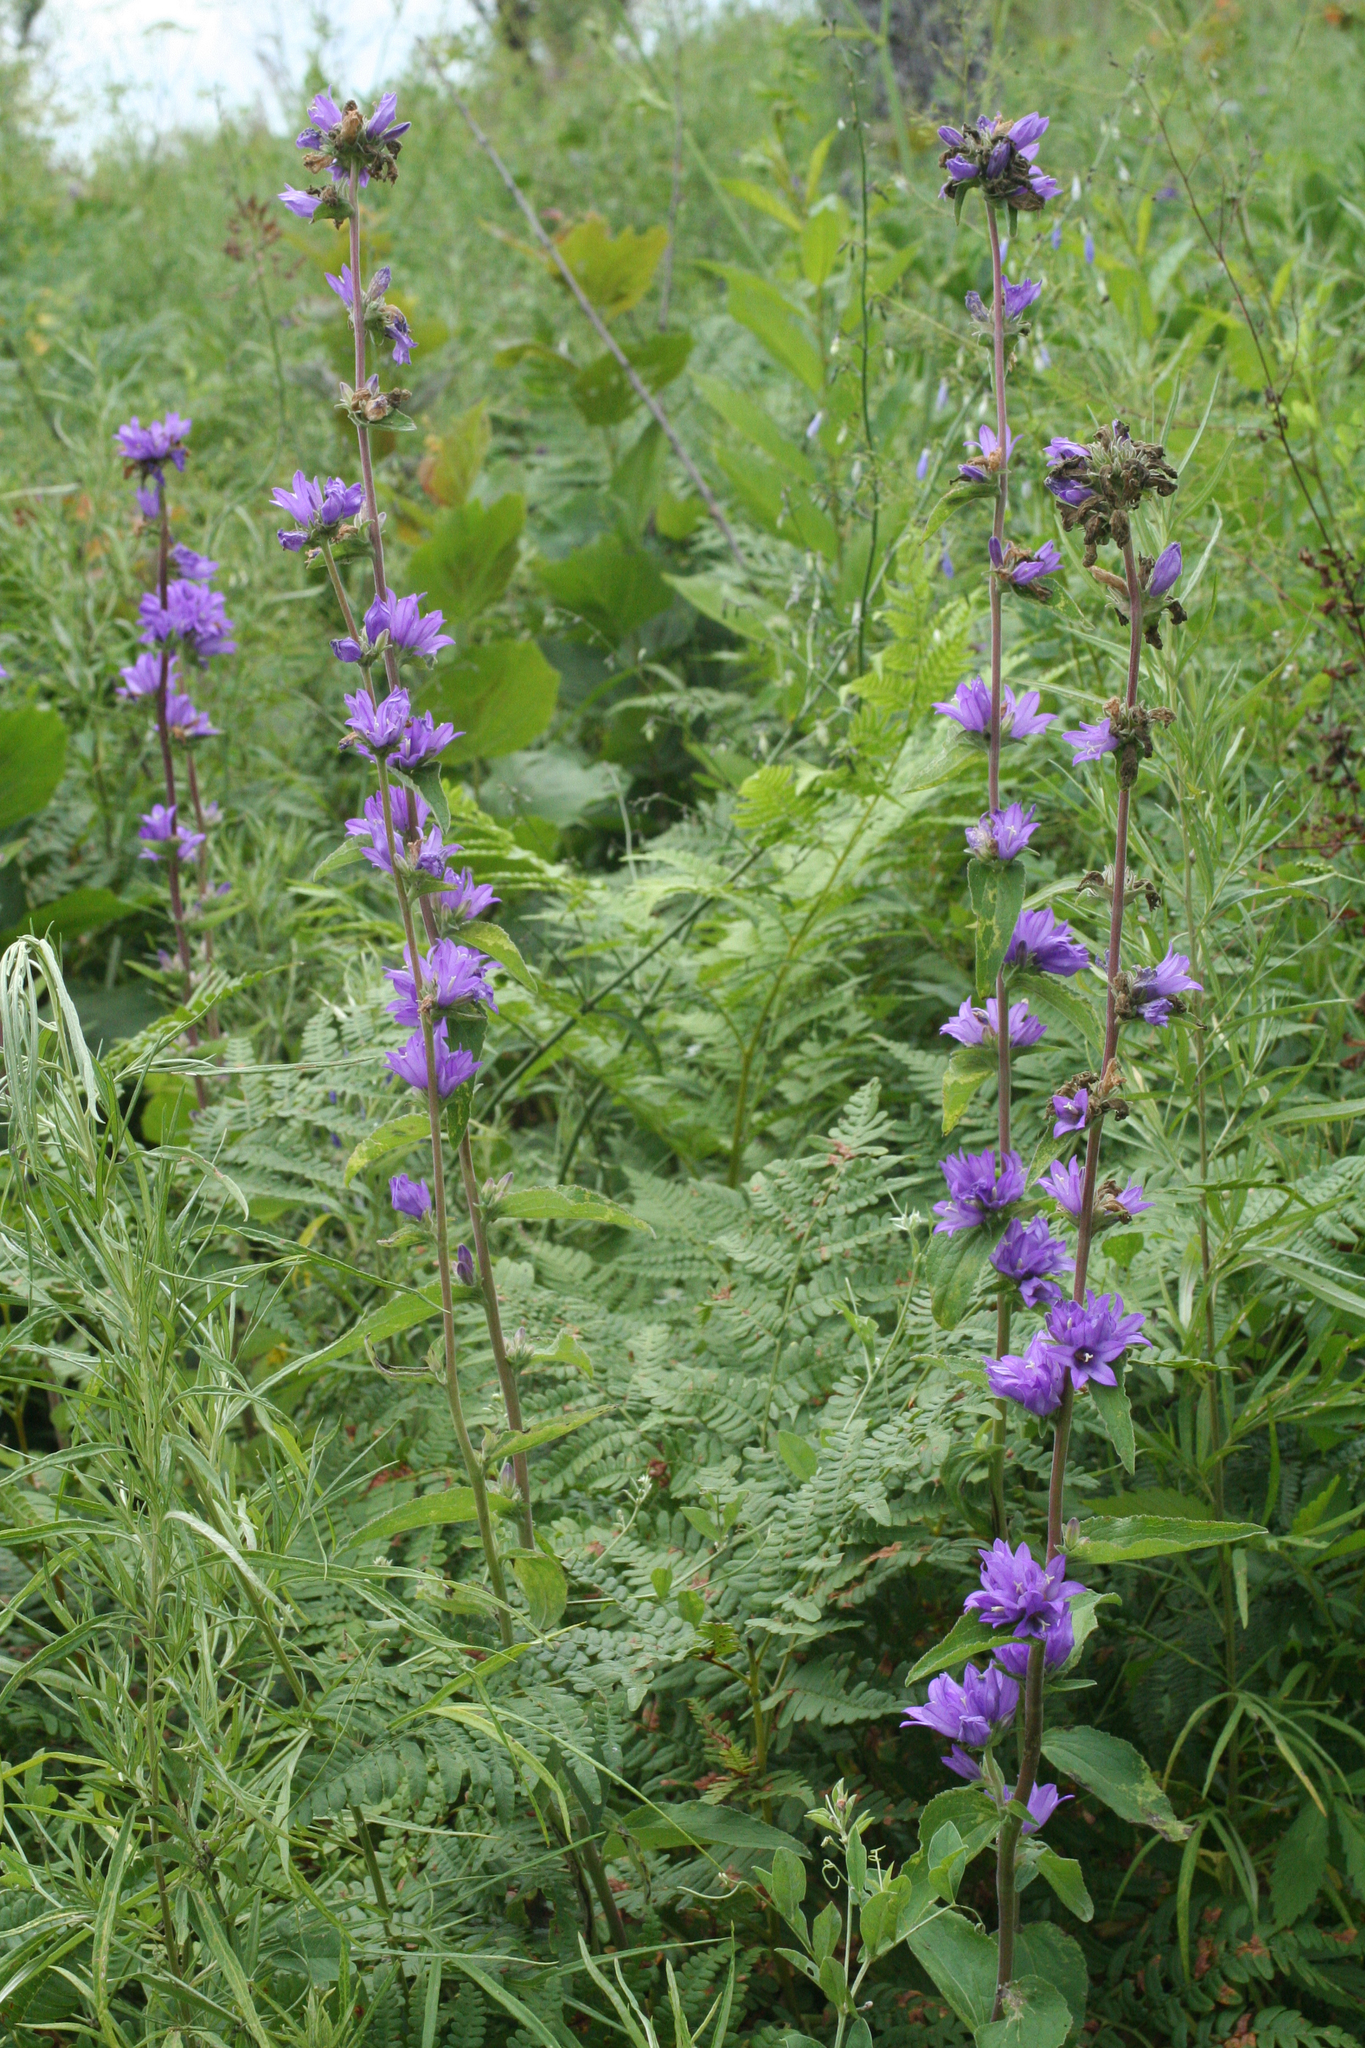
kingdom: Plantae
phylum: Tracheophyta
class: Magnoliopsida
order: Asterales
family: Campanulaceae
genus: Campanula
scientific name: Campanula glomerata
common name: Clustered bellflower
